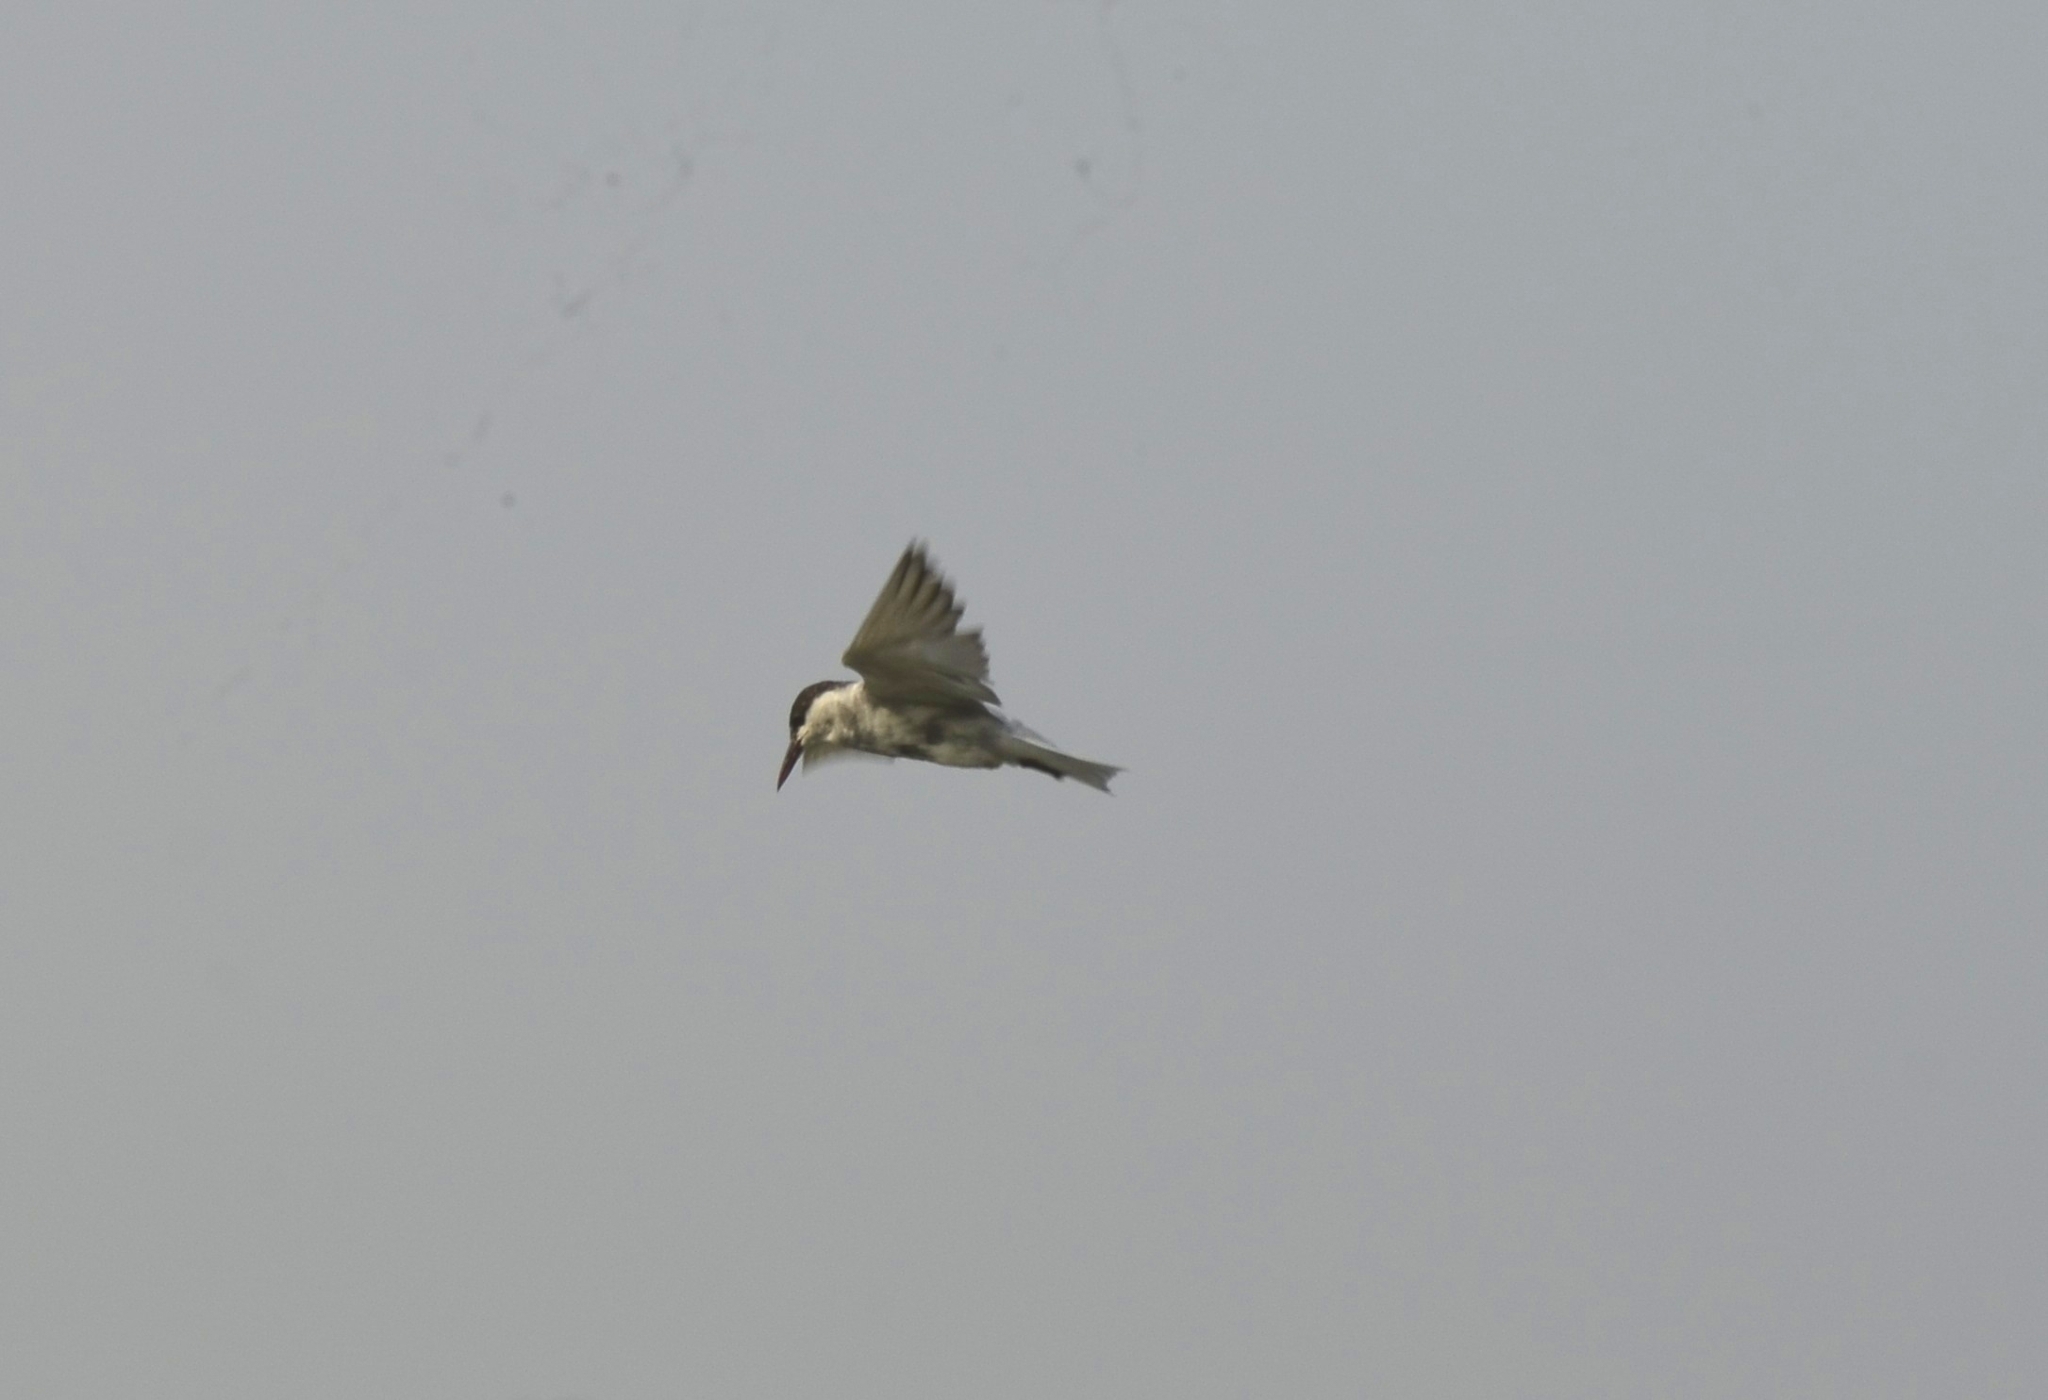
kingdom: Animalia
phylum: Chordata
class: Aves
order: Charadriiformes
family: Laridae
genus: Chlidonias
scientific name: Chlidonias hybrida
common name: Whiskered tern
